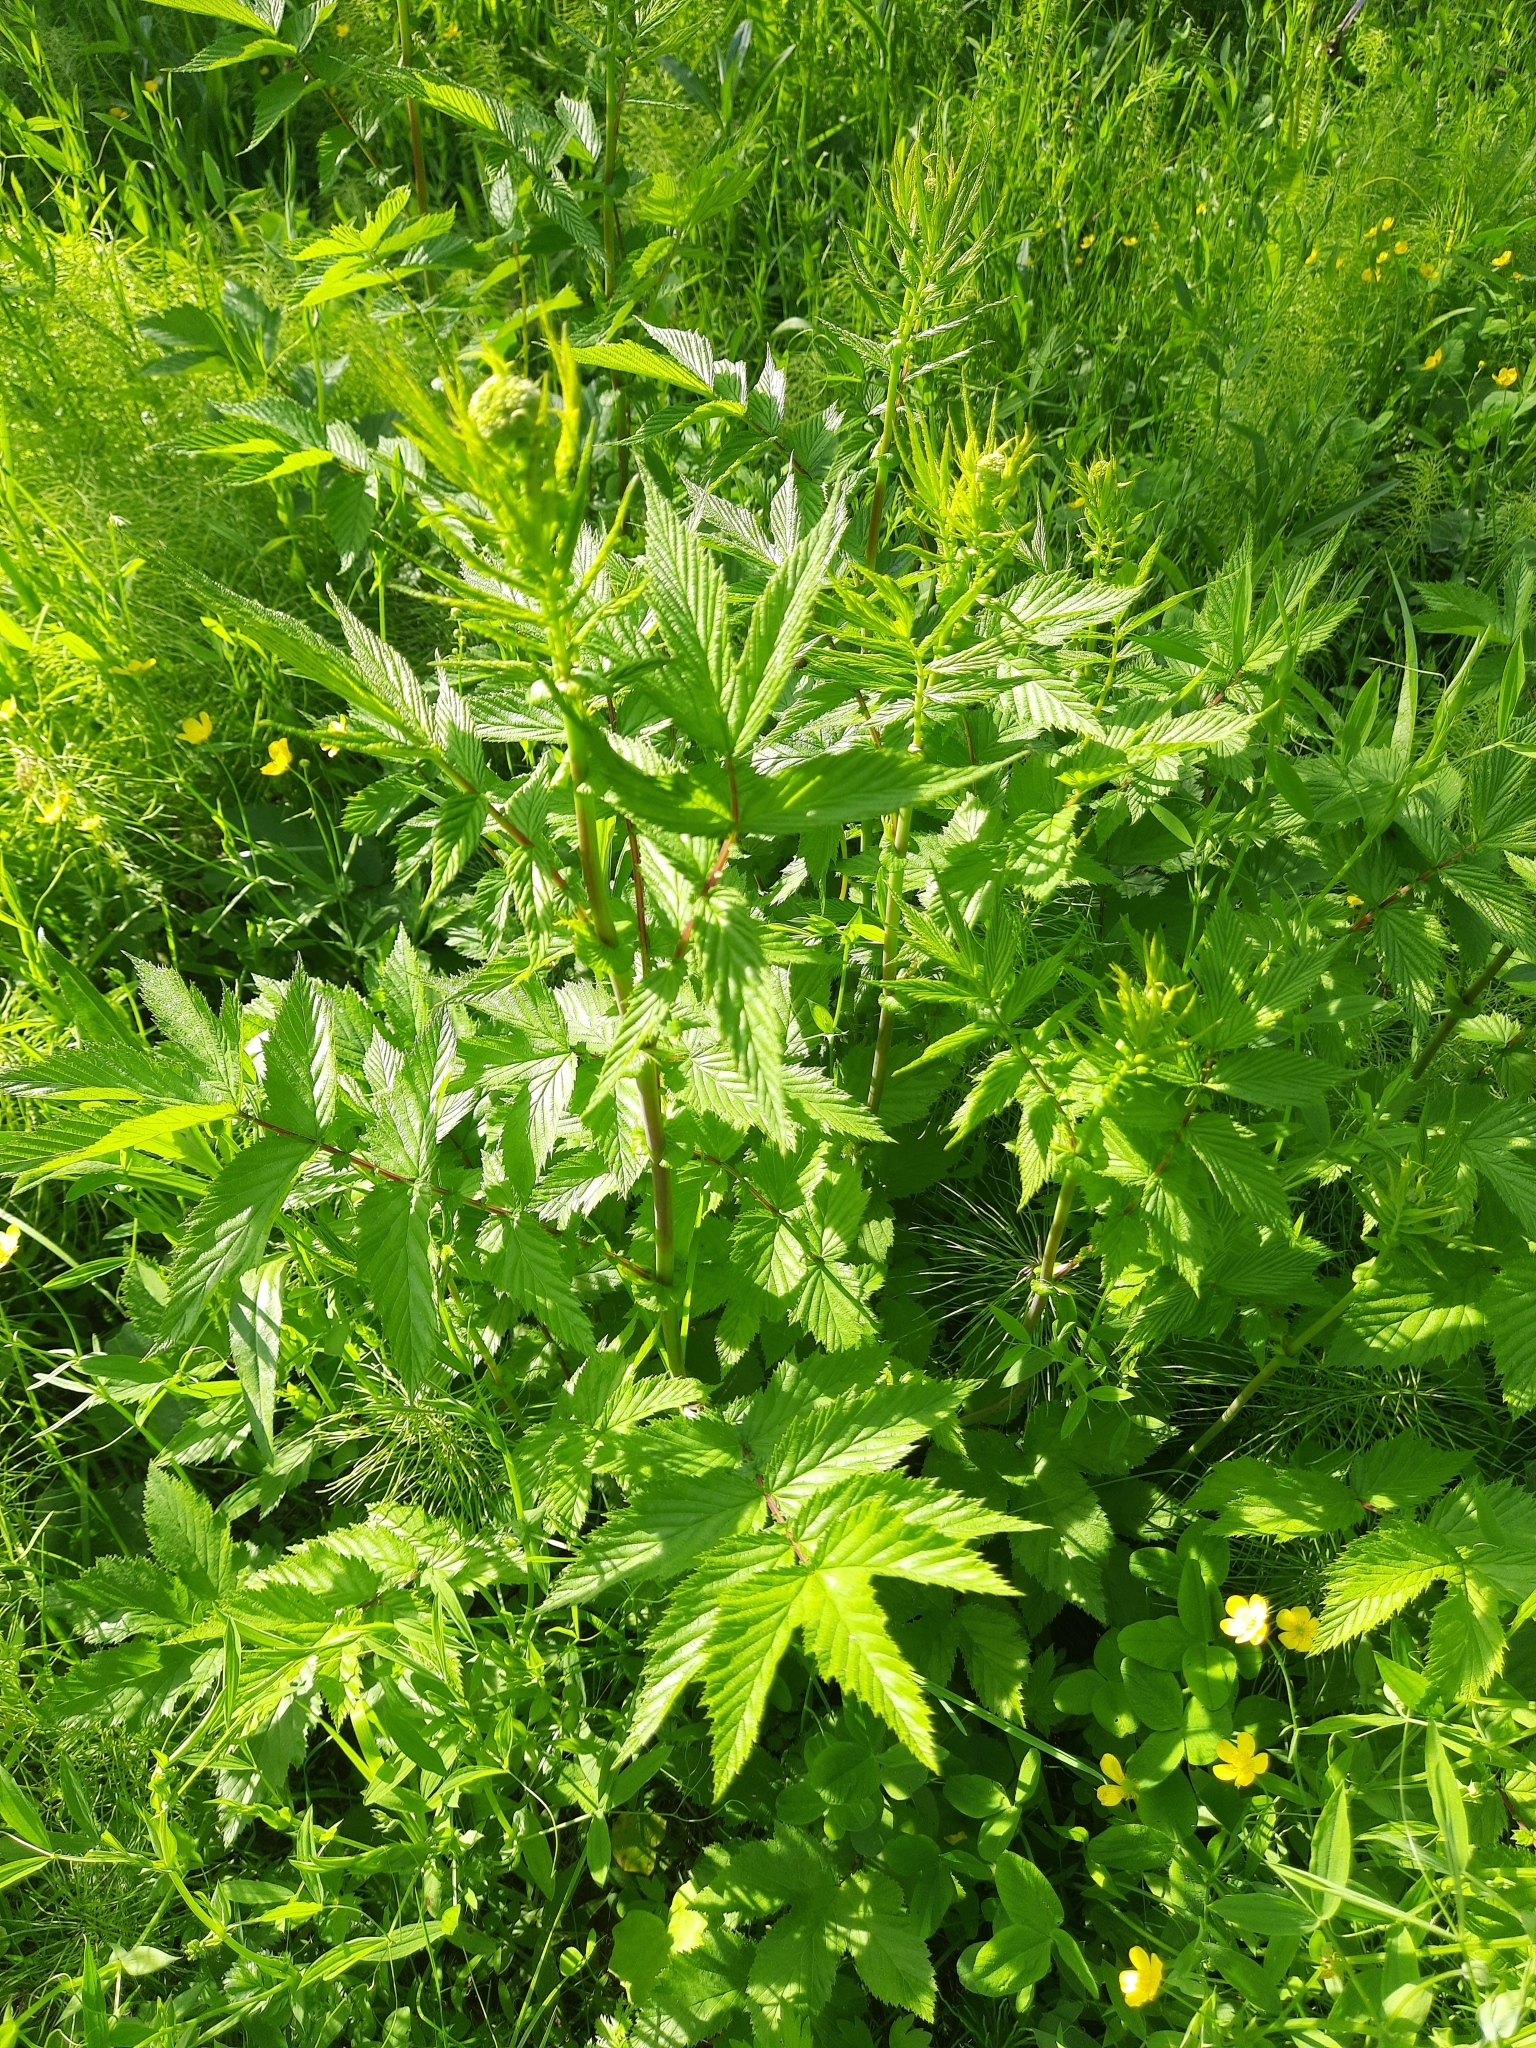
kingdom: Plantae
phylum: Tracheophyta
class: Magnoliopsida
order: Rosales
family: Rosaceae
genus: Filipendula
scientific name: Filipendula ulmaria
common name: Meadowsweet
